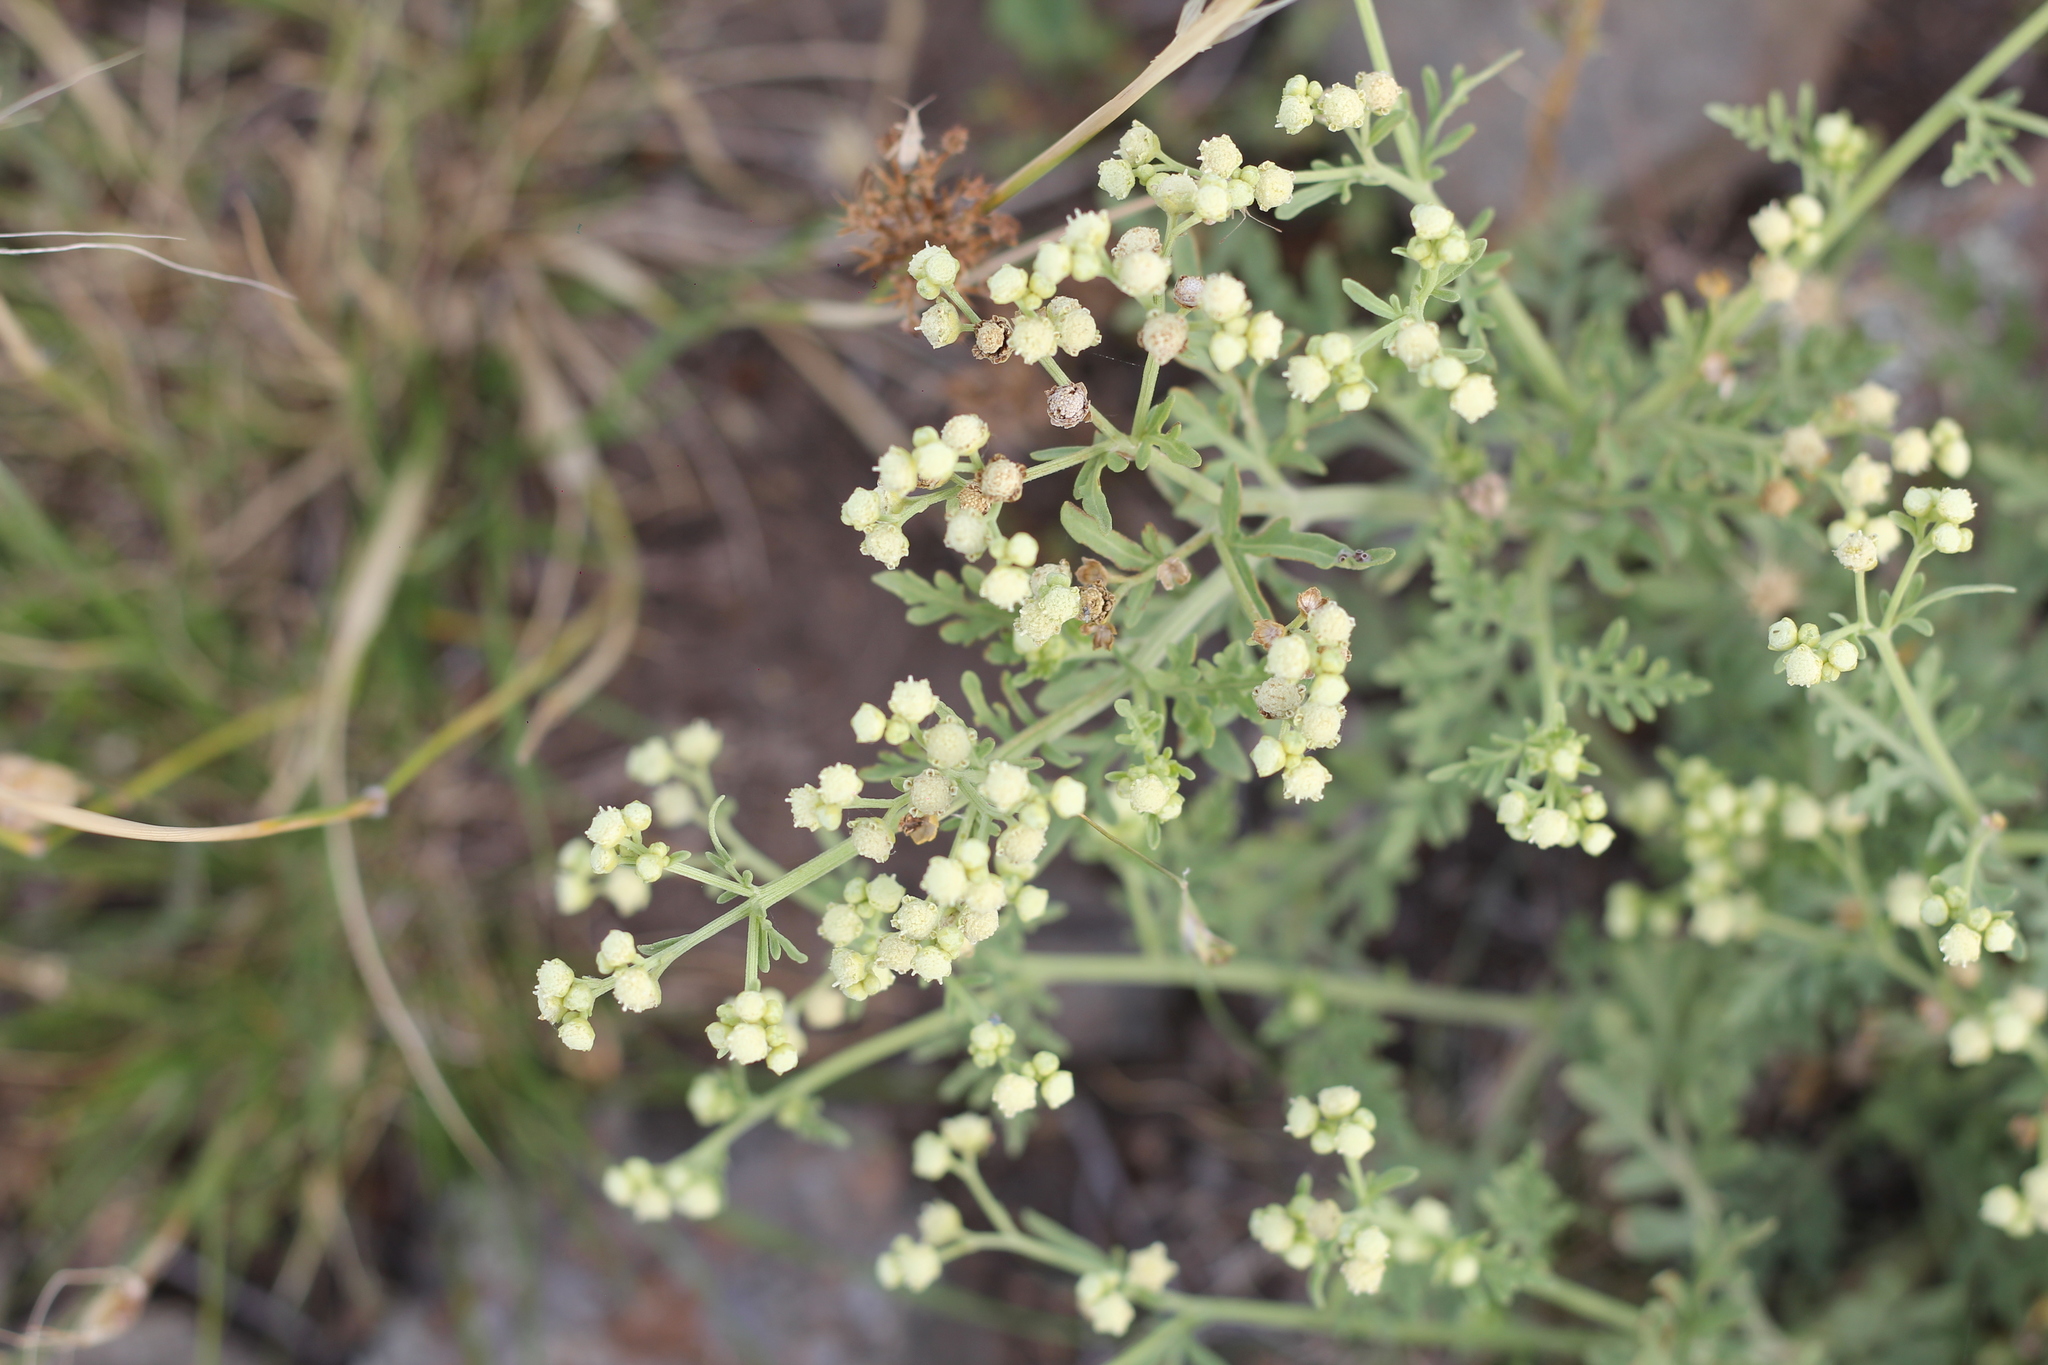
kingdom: Plantae
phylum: Tracheophyta
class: Magnoliopsida
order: Asterales
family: Asteraceae
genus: Parthenium
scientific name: Parthenium hysterophorus
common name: Santa maria feverfew
